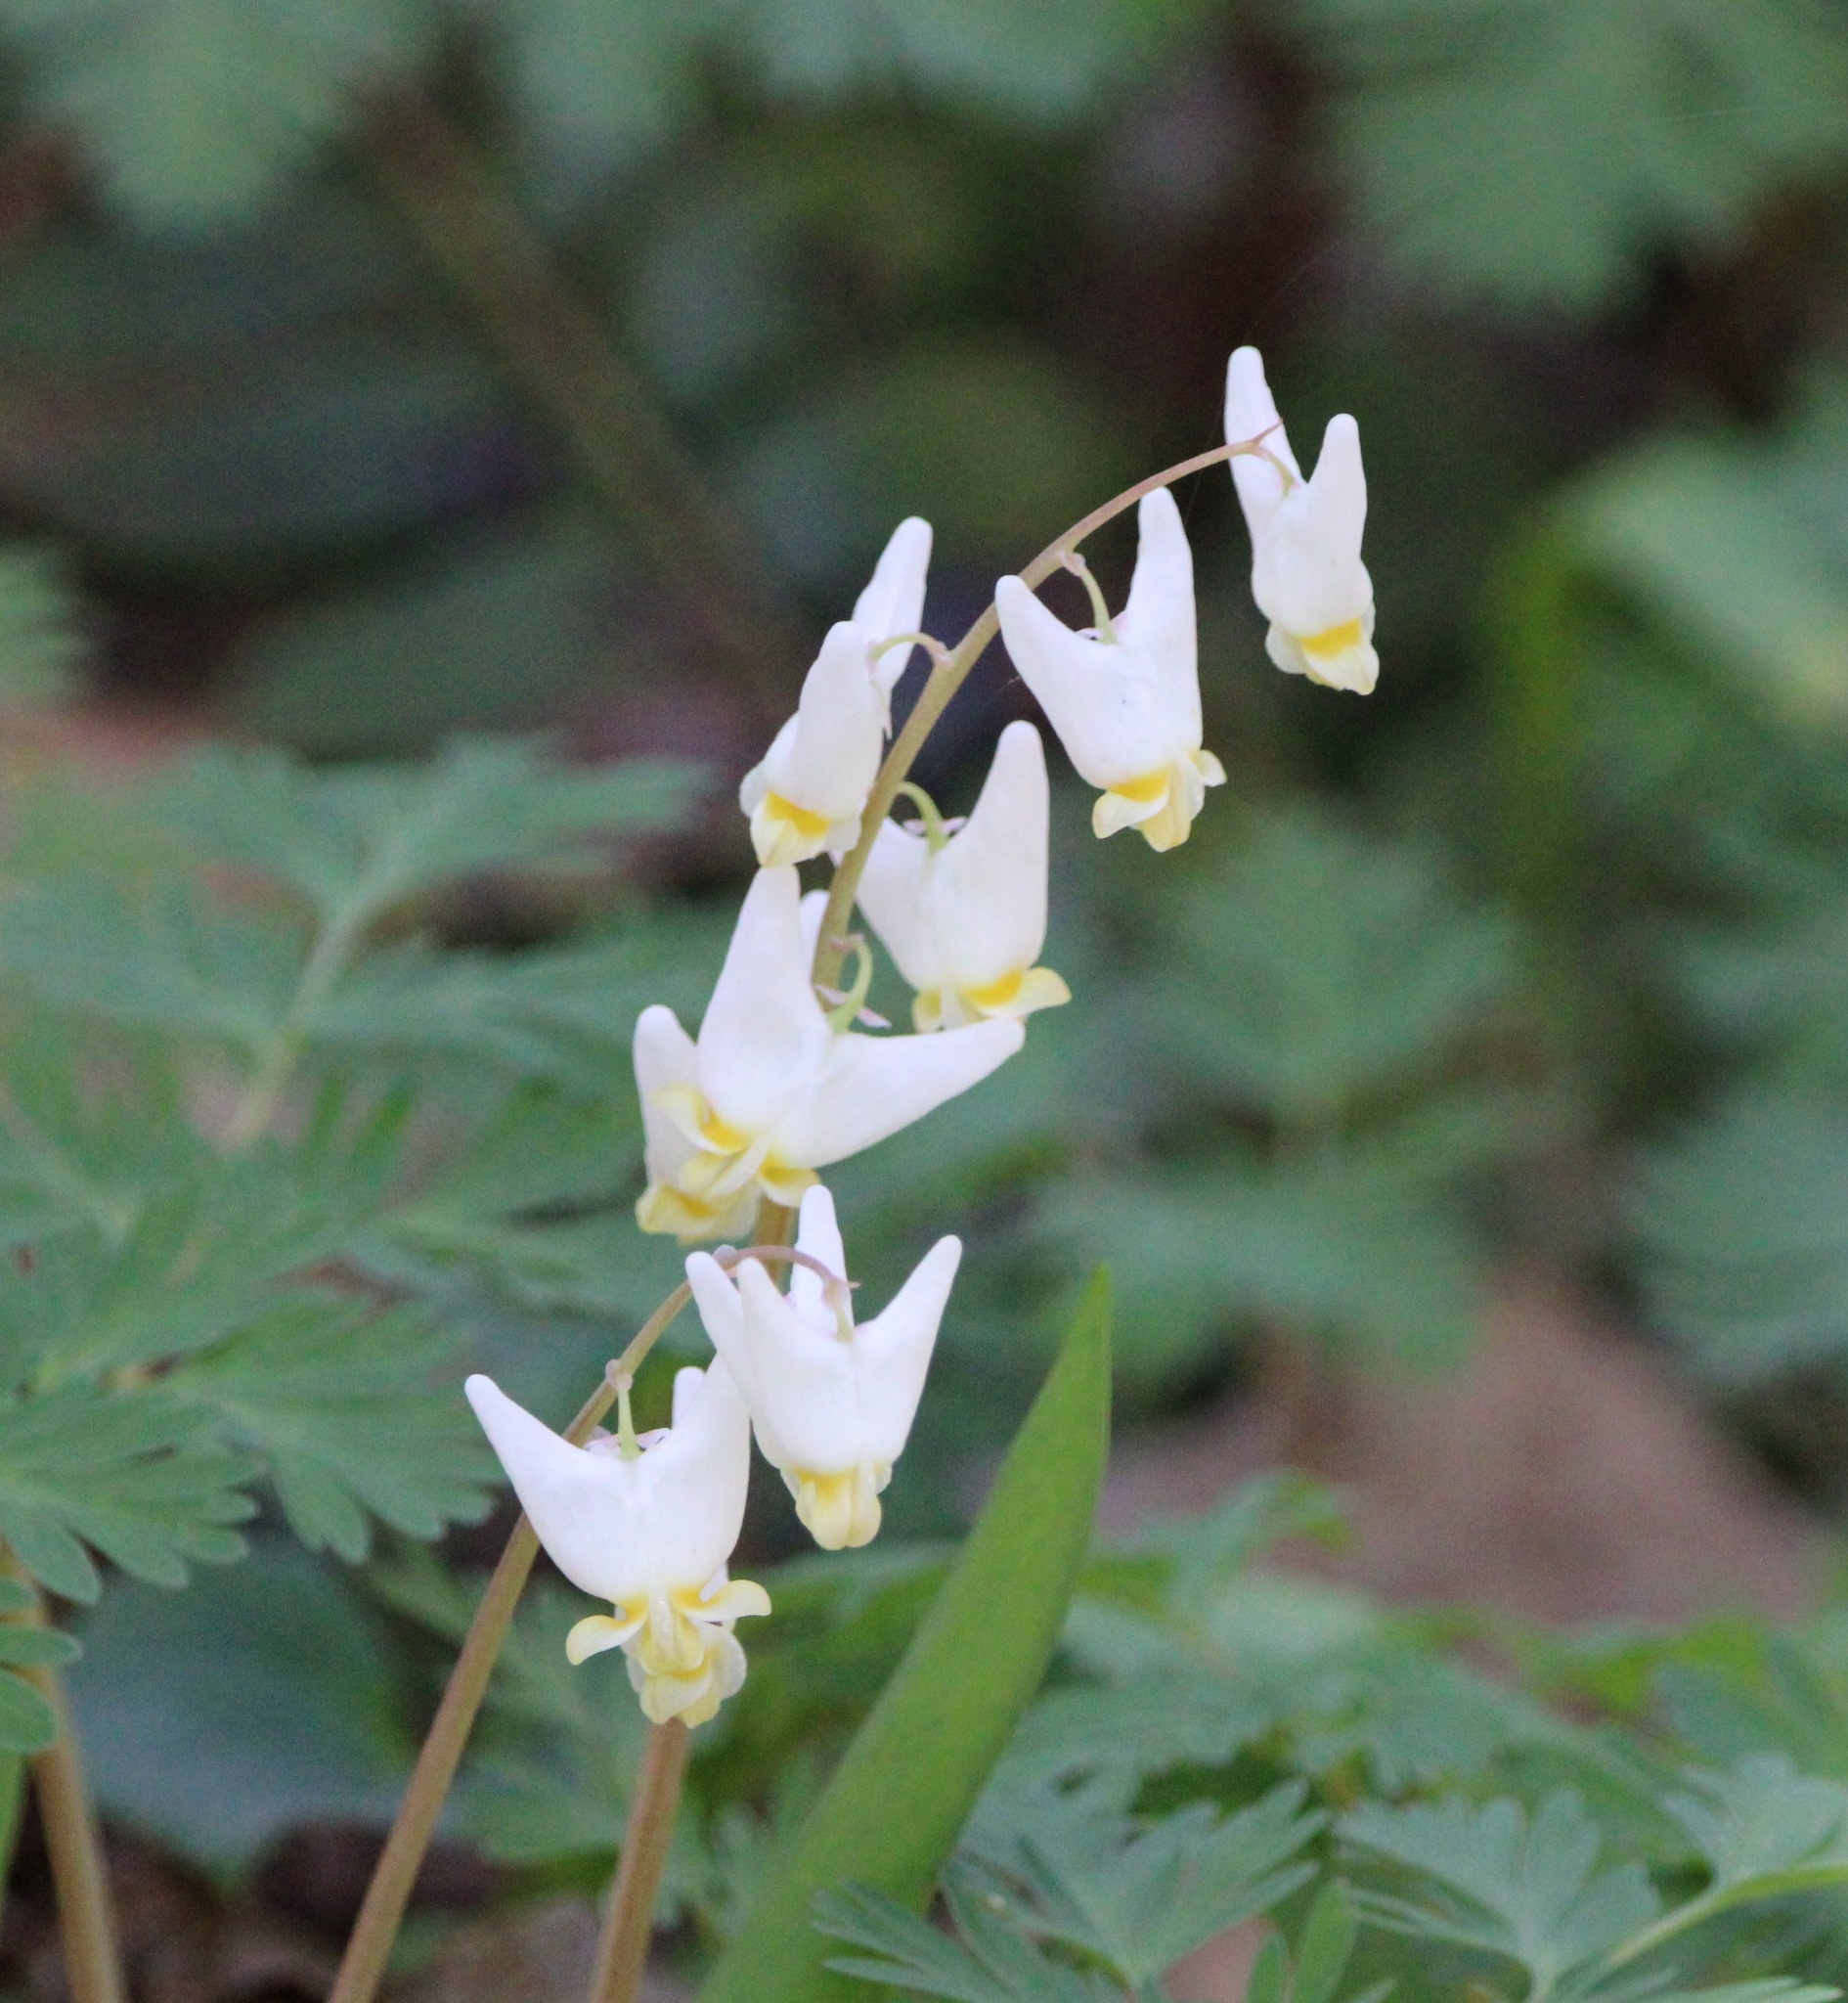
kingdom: Plantae
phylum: Tracheophyta
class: Magnoliopsida
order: Ranunculales
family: Papaveraceae
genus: Dicentra
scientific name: Dicentra cucullaria
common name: Dutchman's breeches
